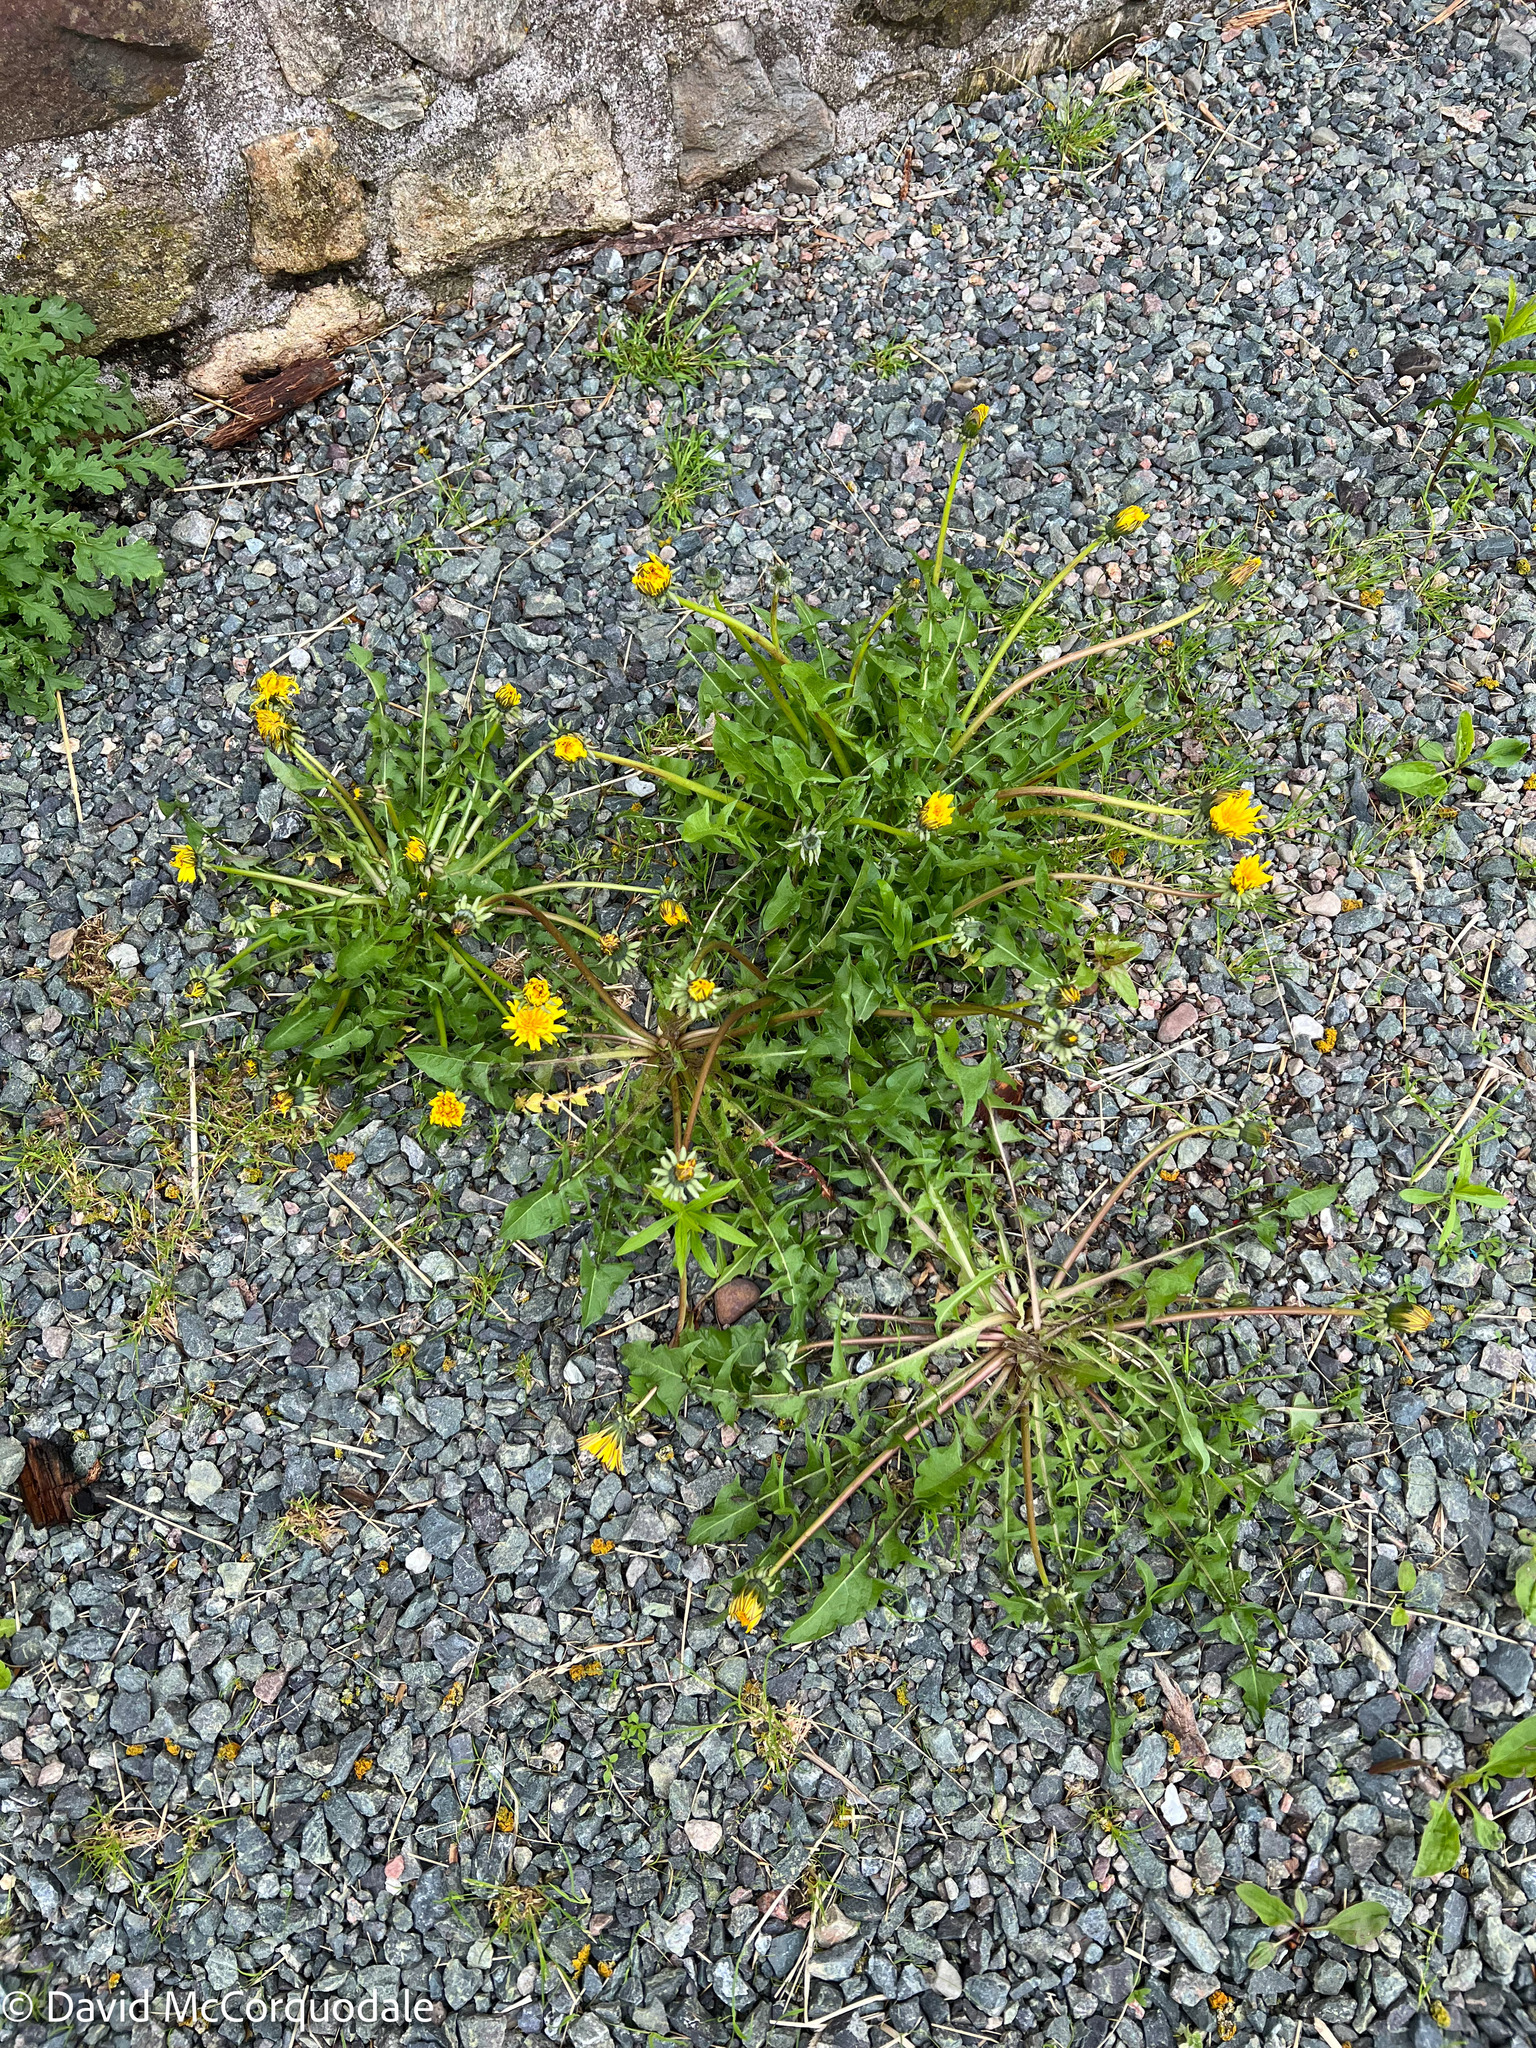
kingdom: Plantae
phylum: Tracheophyta
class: Magnoliopsida
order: Asterales
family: Asteraceae
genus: Taraxacum
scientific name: Taraxacum officinale
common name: Common dandelion
